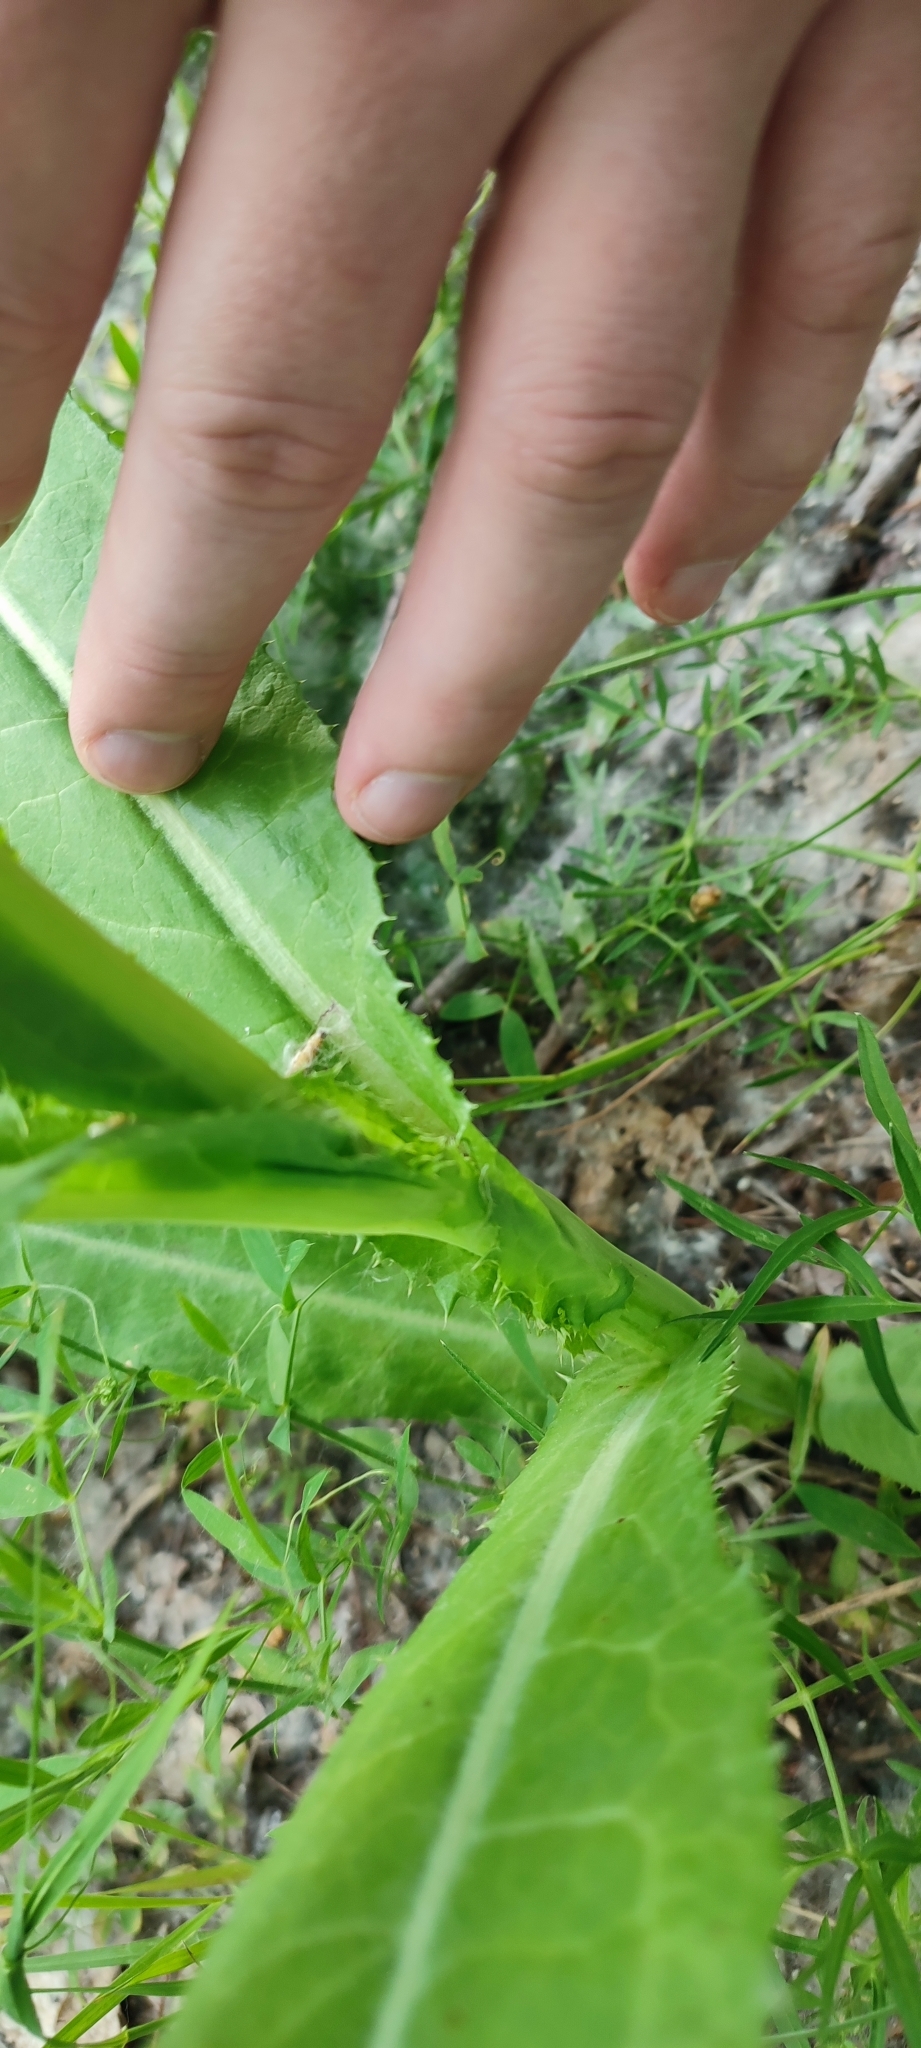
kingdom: Plantae
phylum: Tracheophyta
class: Magnoliopsida
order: Asterales
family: Asteraceae
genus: Sonchus
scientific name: Sonchus arvensis
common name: Perennial sow-thistle
